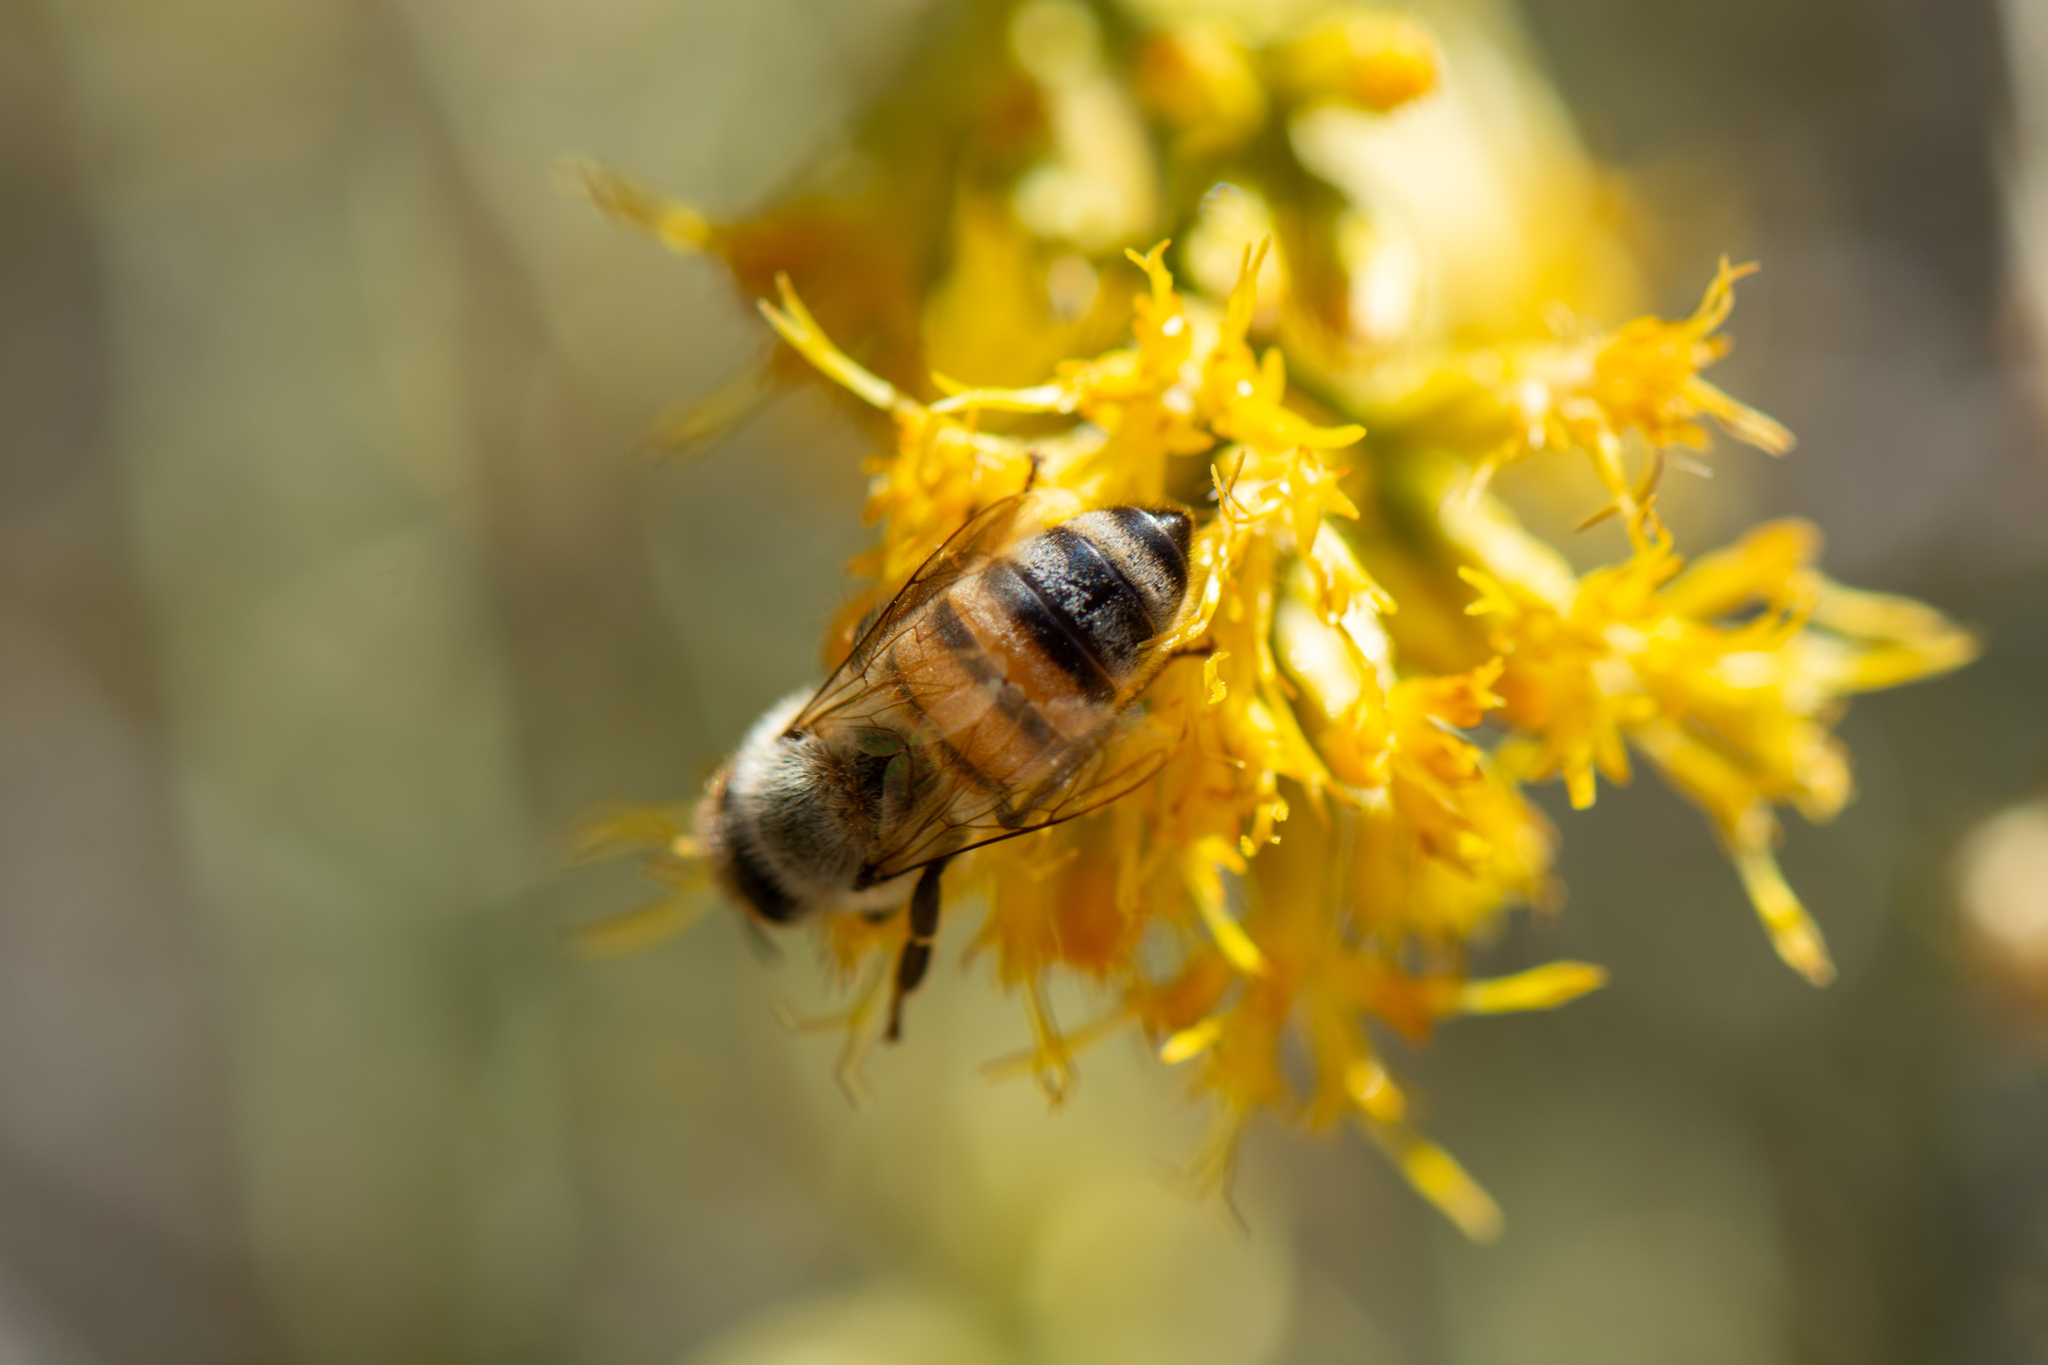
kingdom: Animalia
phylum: Arthropoda
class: Insecta
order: Hymenoptera
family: Apidae
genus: Apis
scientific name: Apis mellifera
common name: Honey bee
